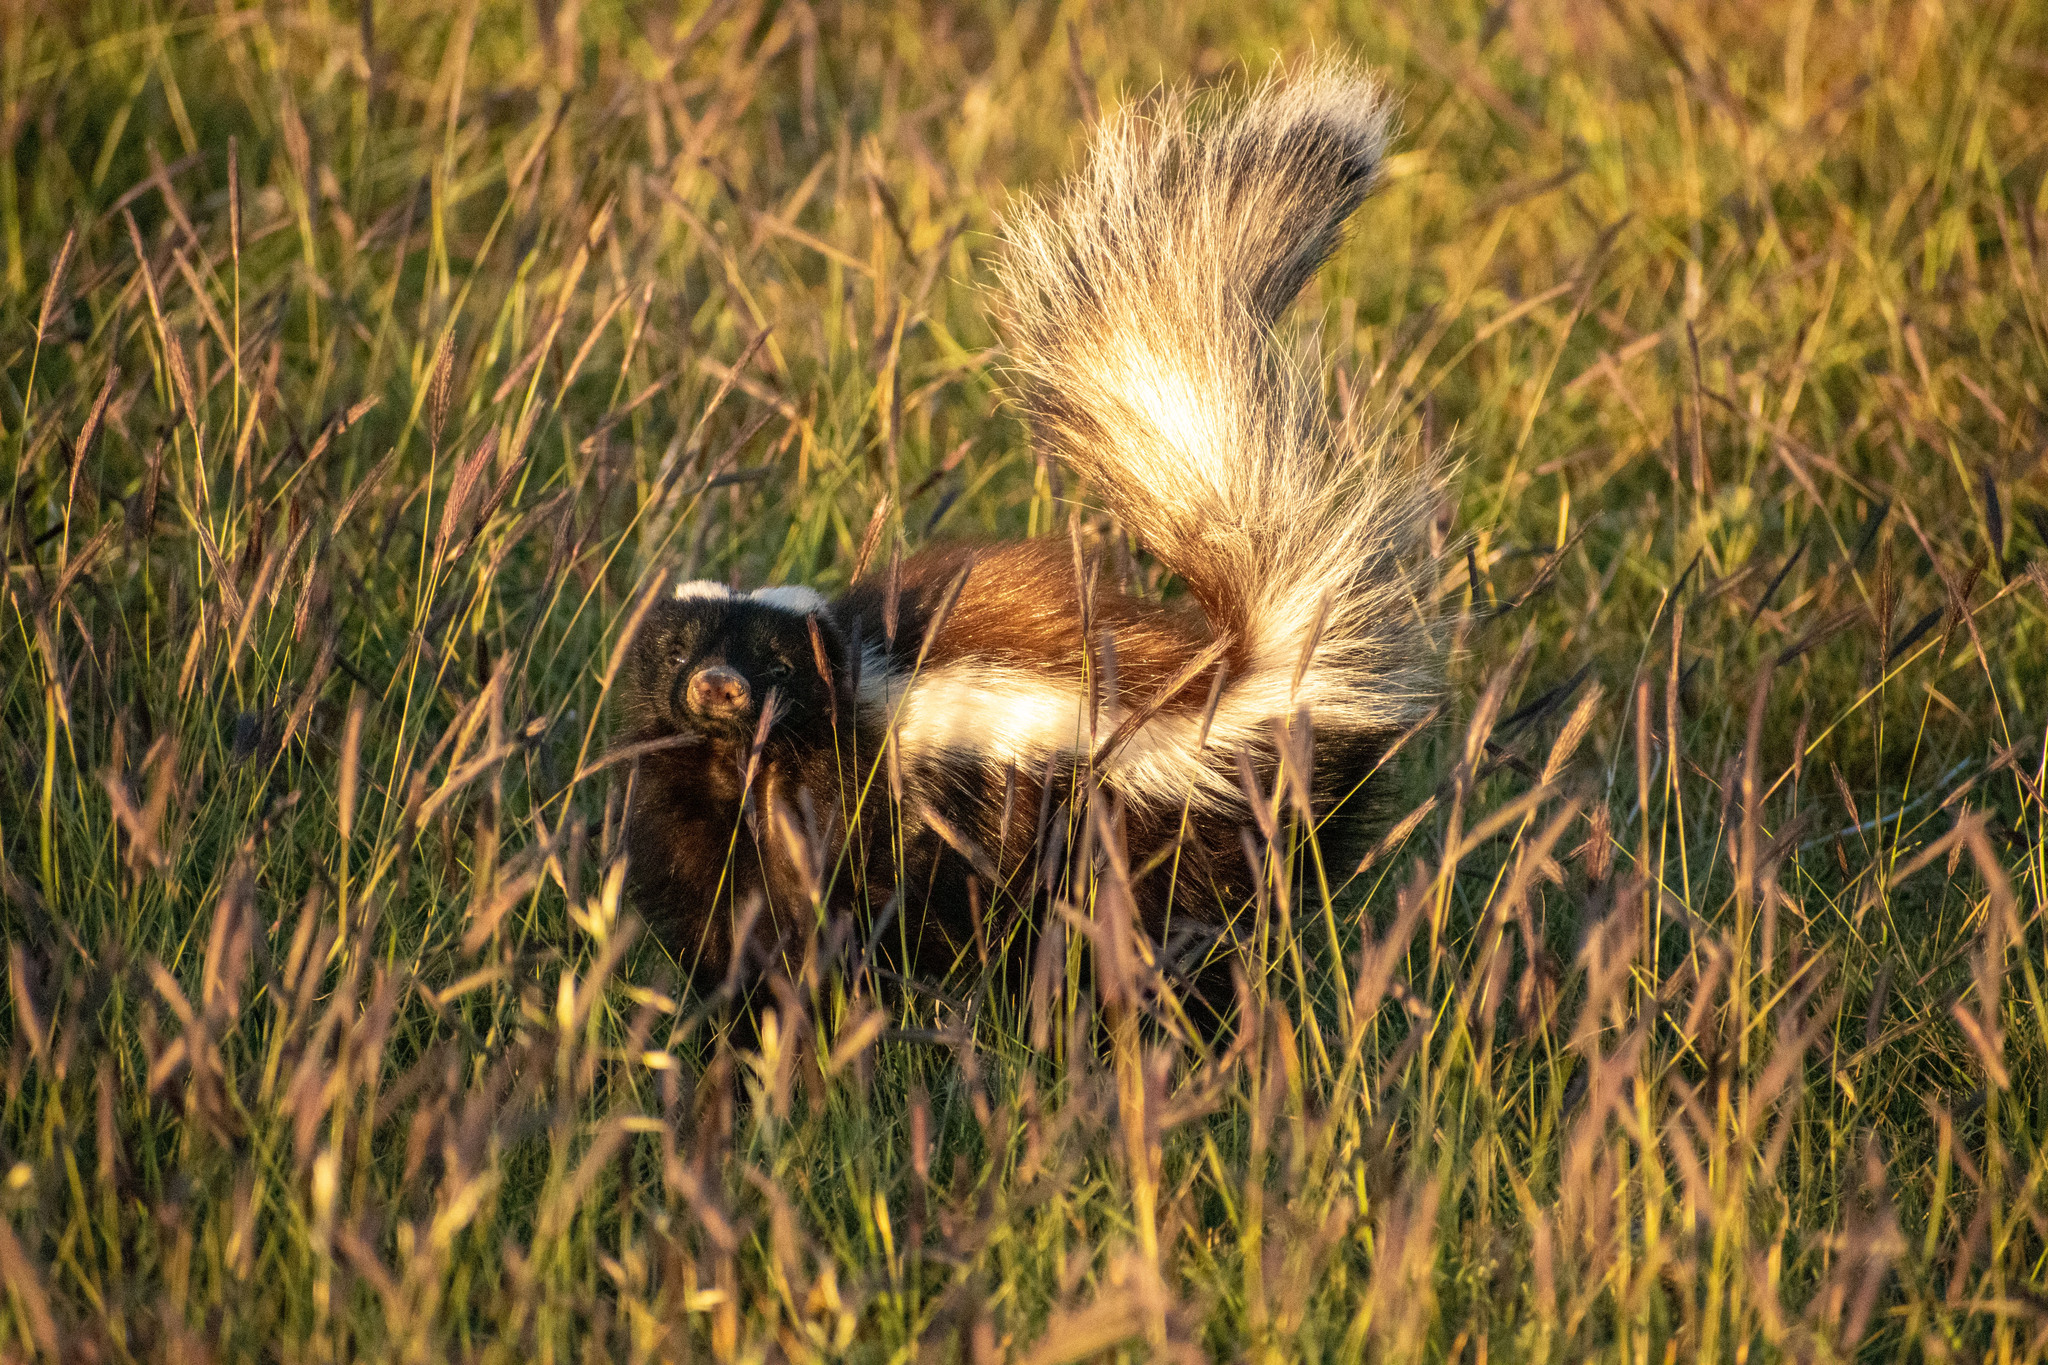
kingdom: Animalia
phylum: Chordata
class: Mammalia
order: Carnivora
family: Mephitidae
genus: Conepatus
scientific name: Conepatus chinga
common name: Molina's hog-nosed skunk
